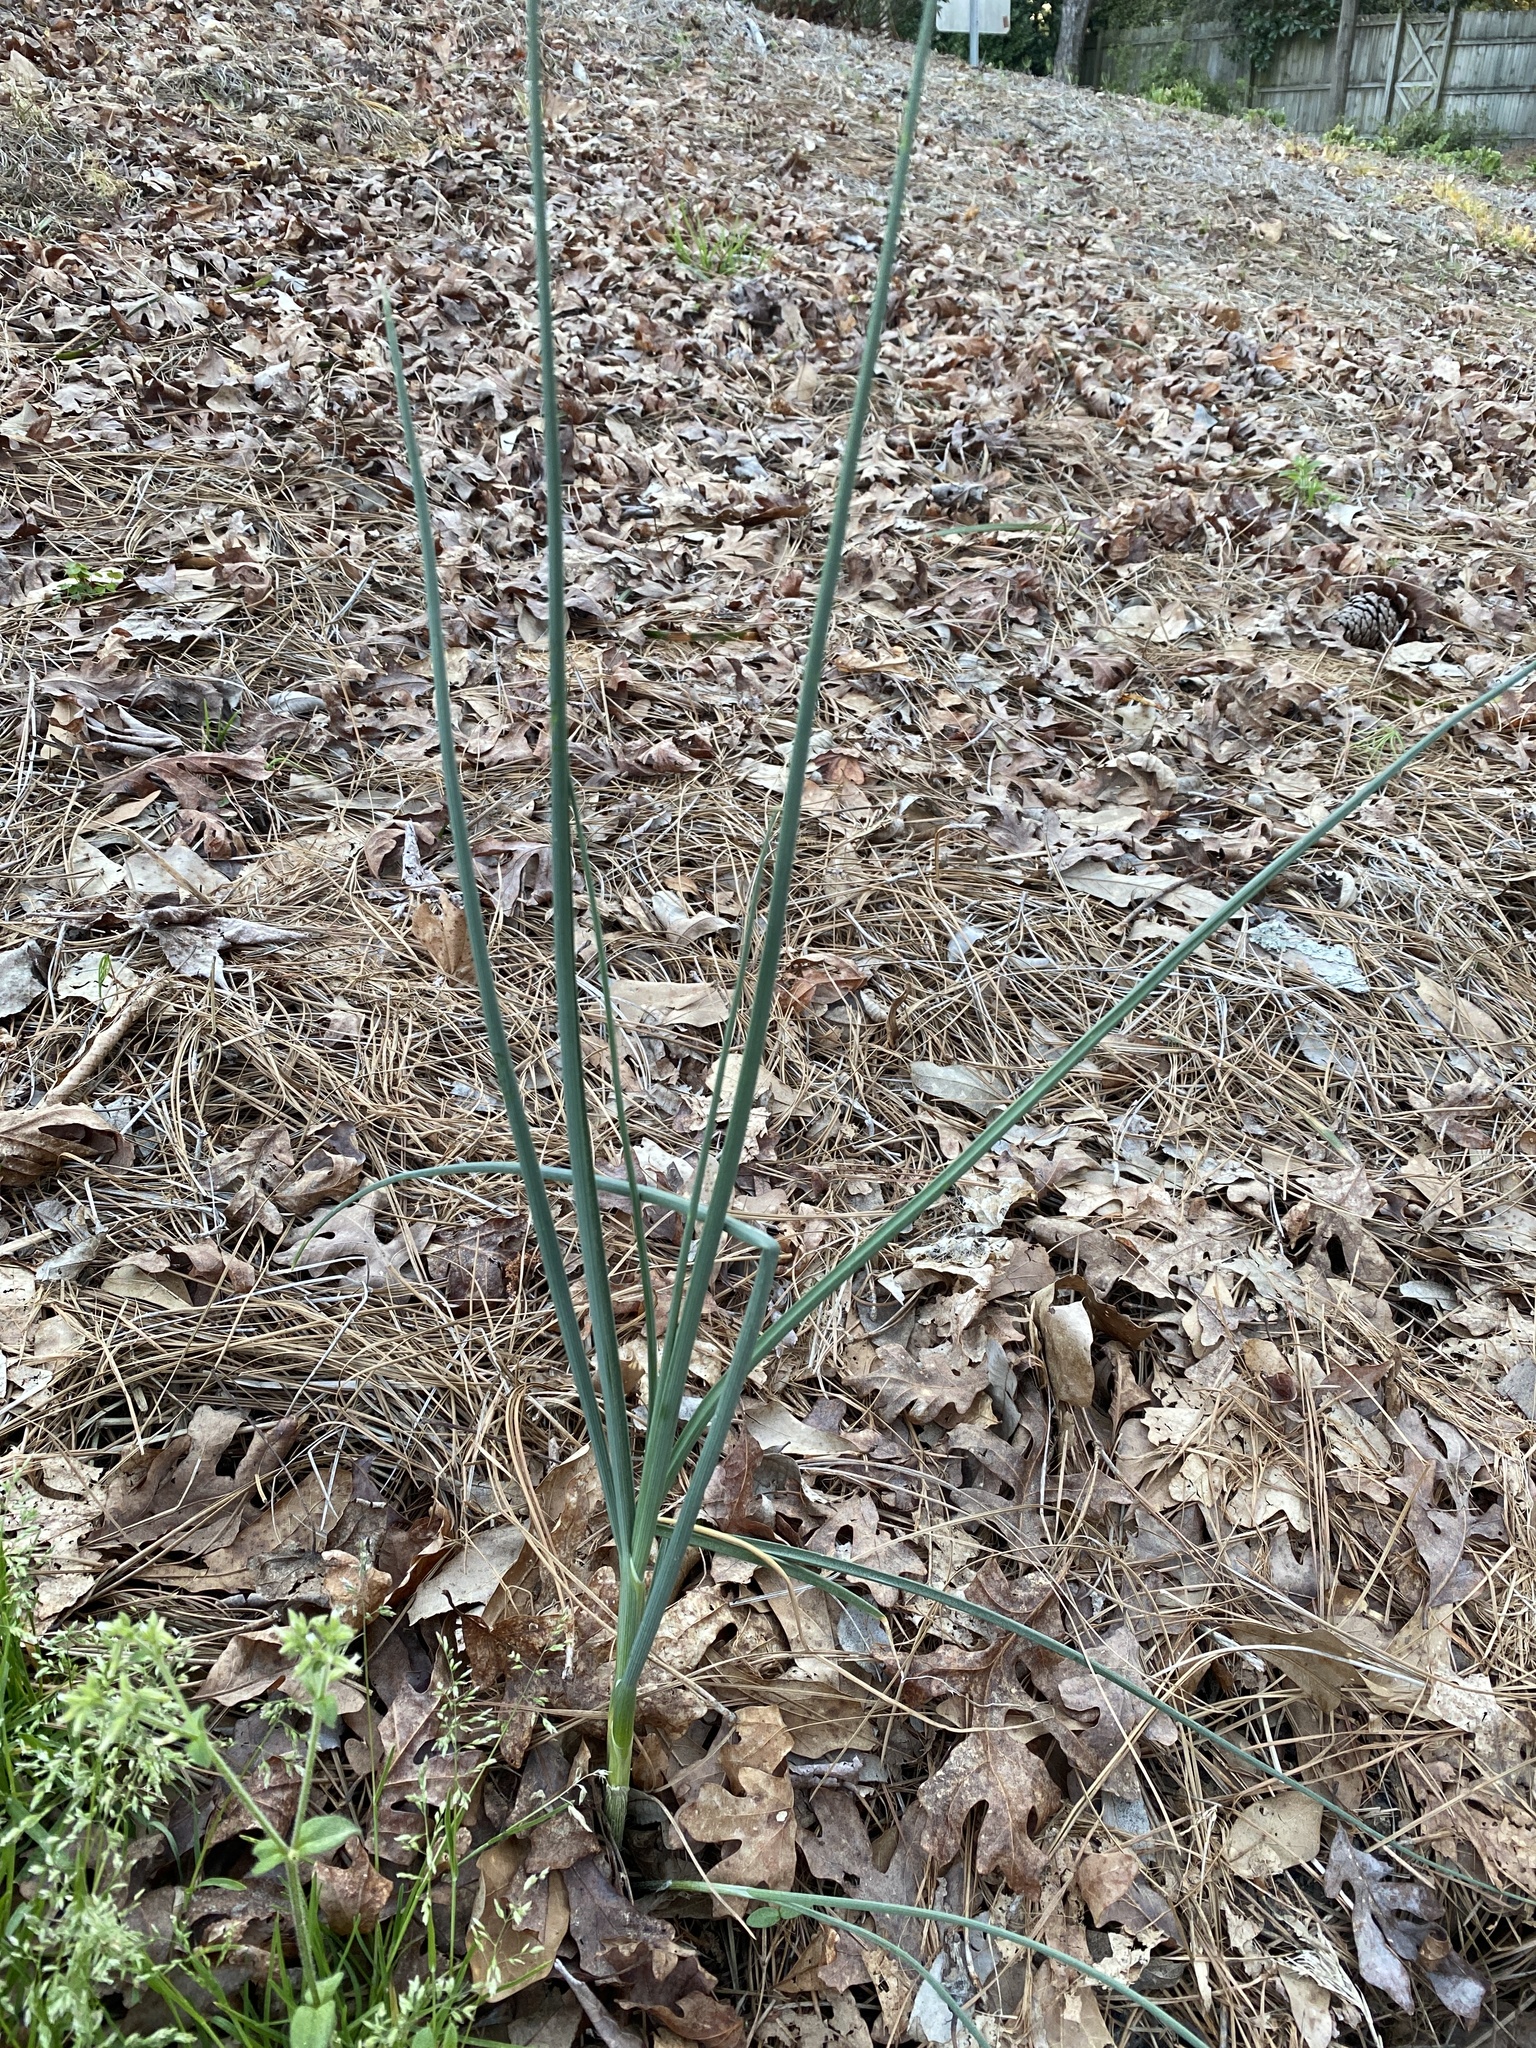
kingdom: Plantae
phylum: Tracheophyta
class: Liliopsida
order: Asparagales
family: Amaryllidaceae
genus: Allium
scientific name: Allium vineale
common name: Crow garlic
